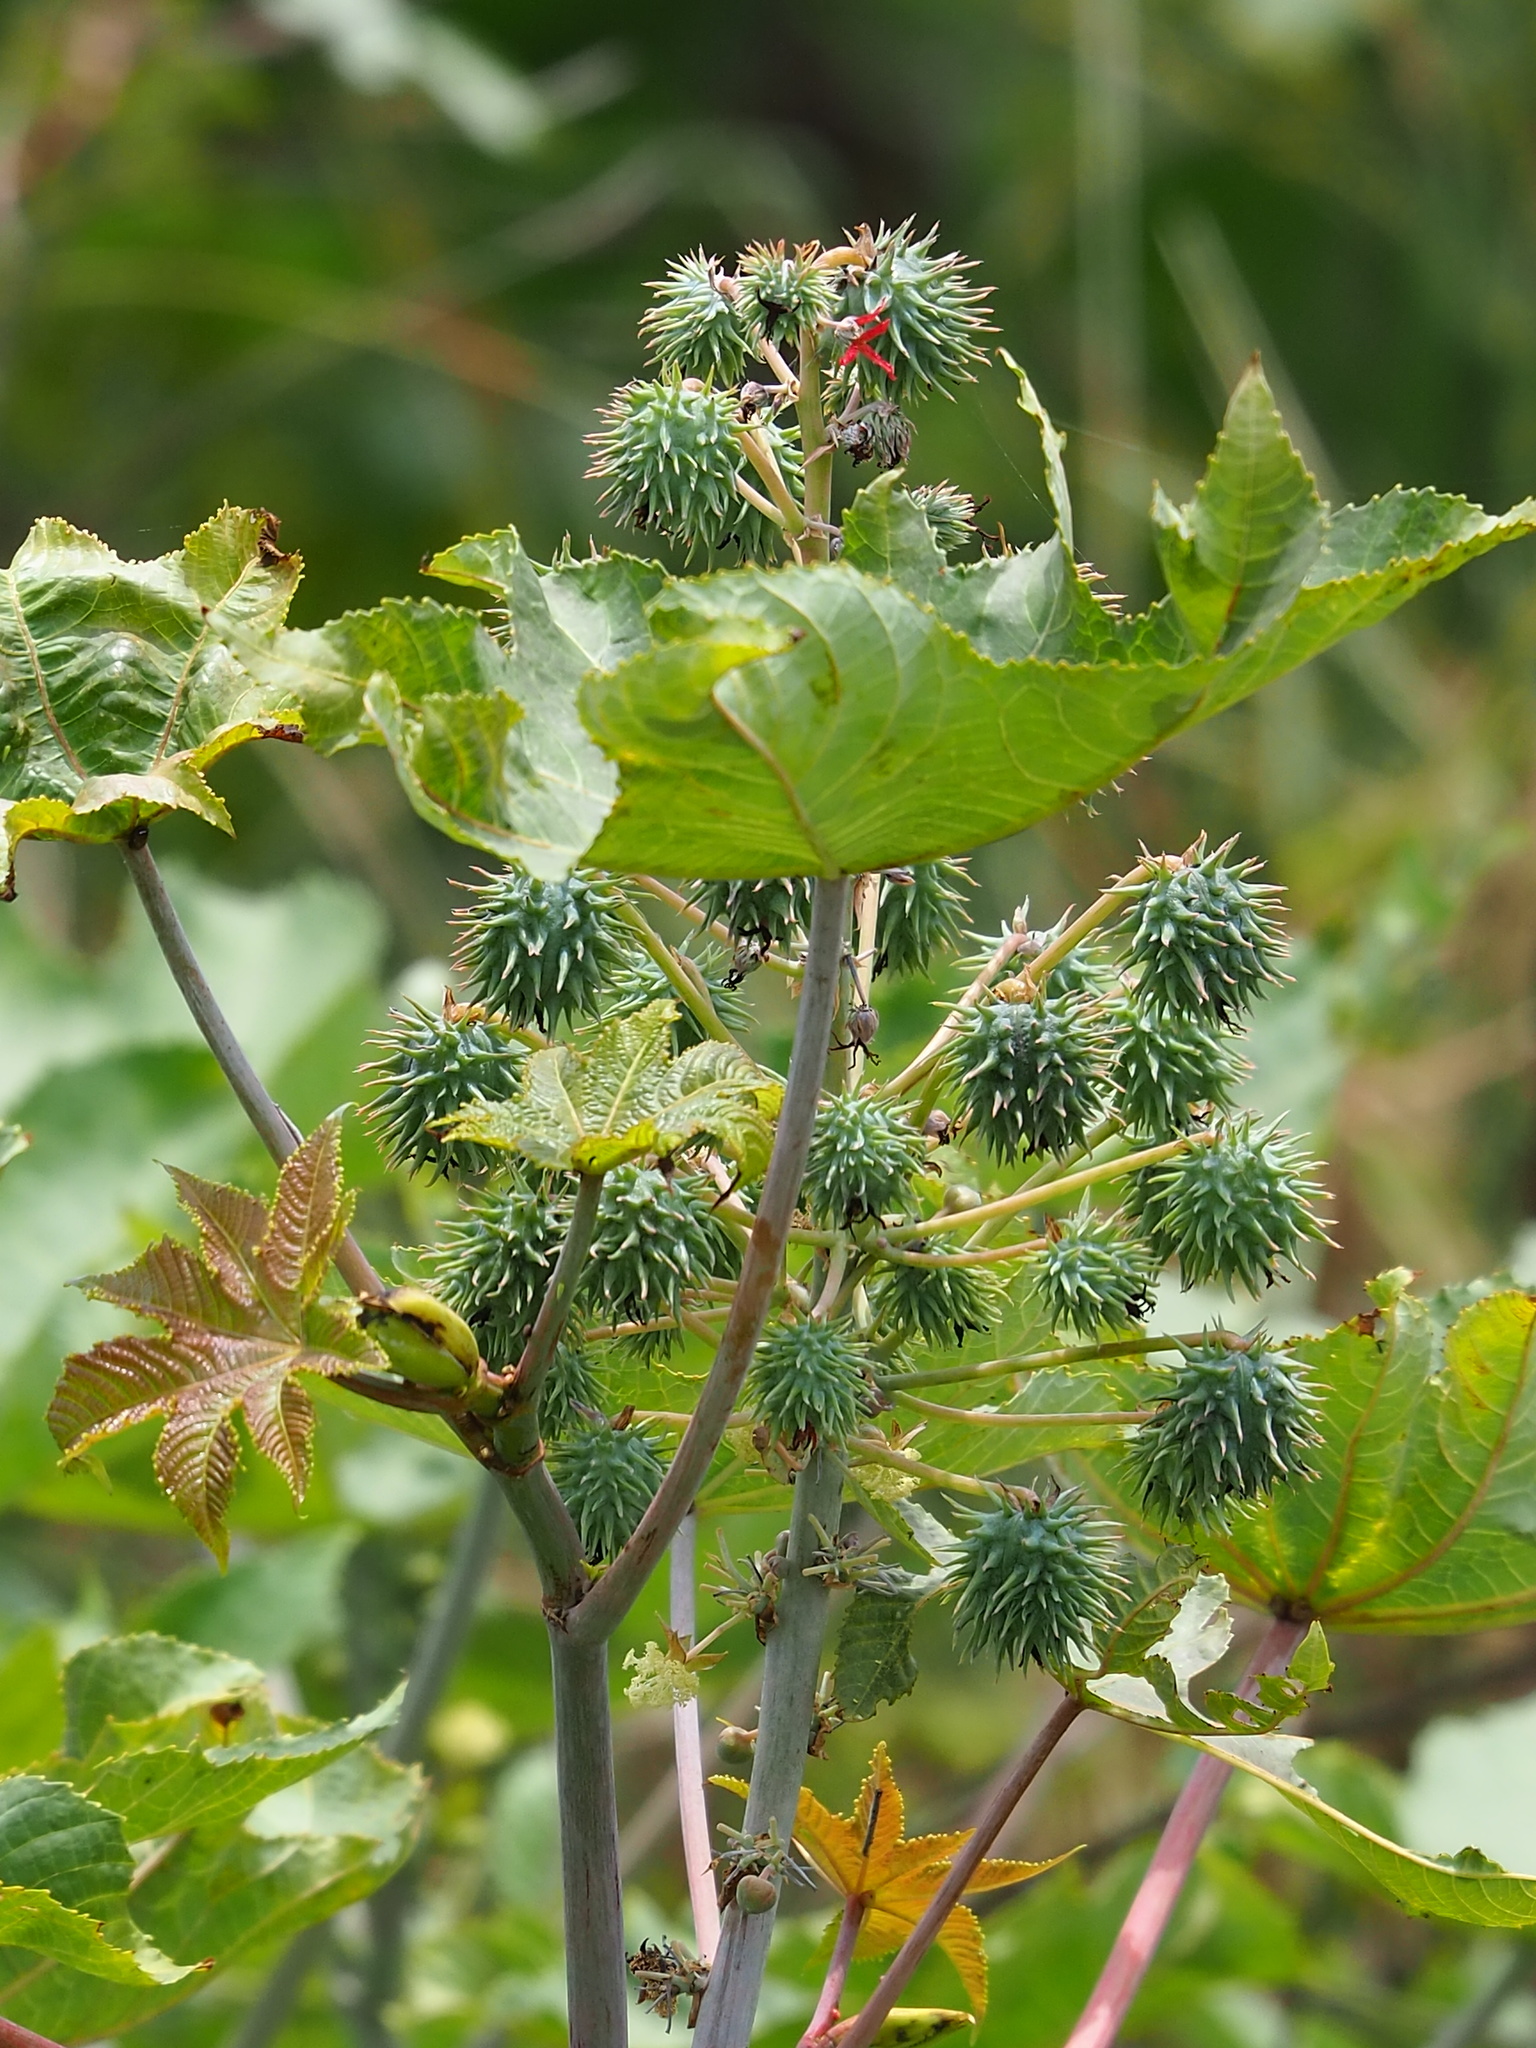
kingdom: Plantae
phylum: Tracheophyta
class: Magnoliopsida
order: Malpighiales
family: Euphorbiaceae
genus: Ricinus
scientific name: Ricinus communis
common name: Castor-oil-plant
